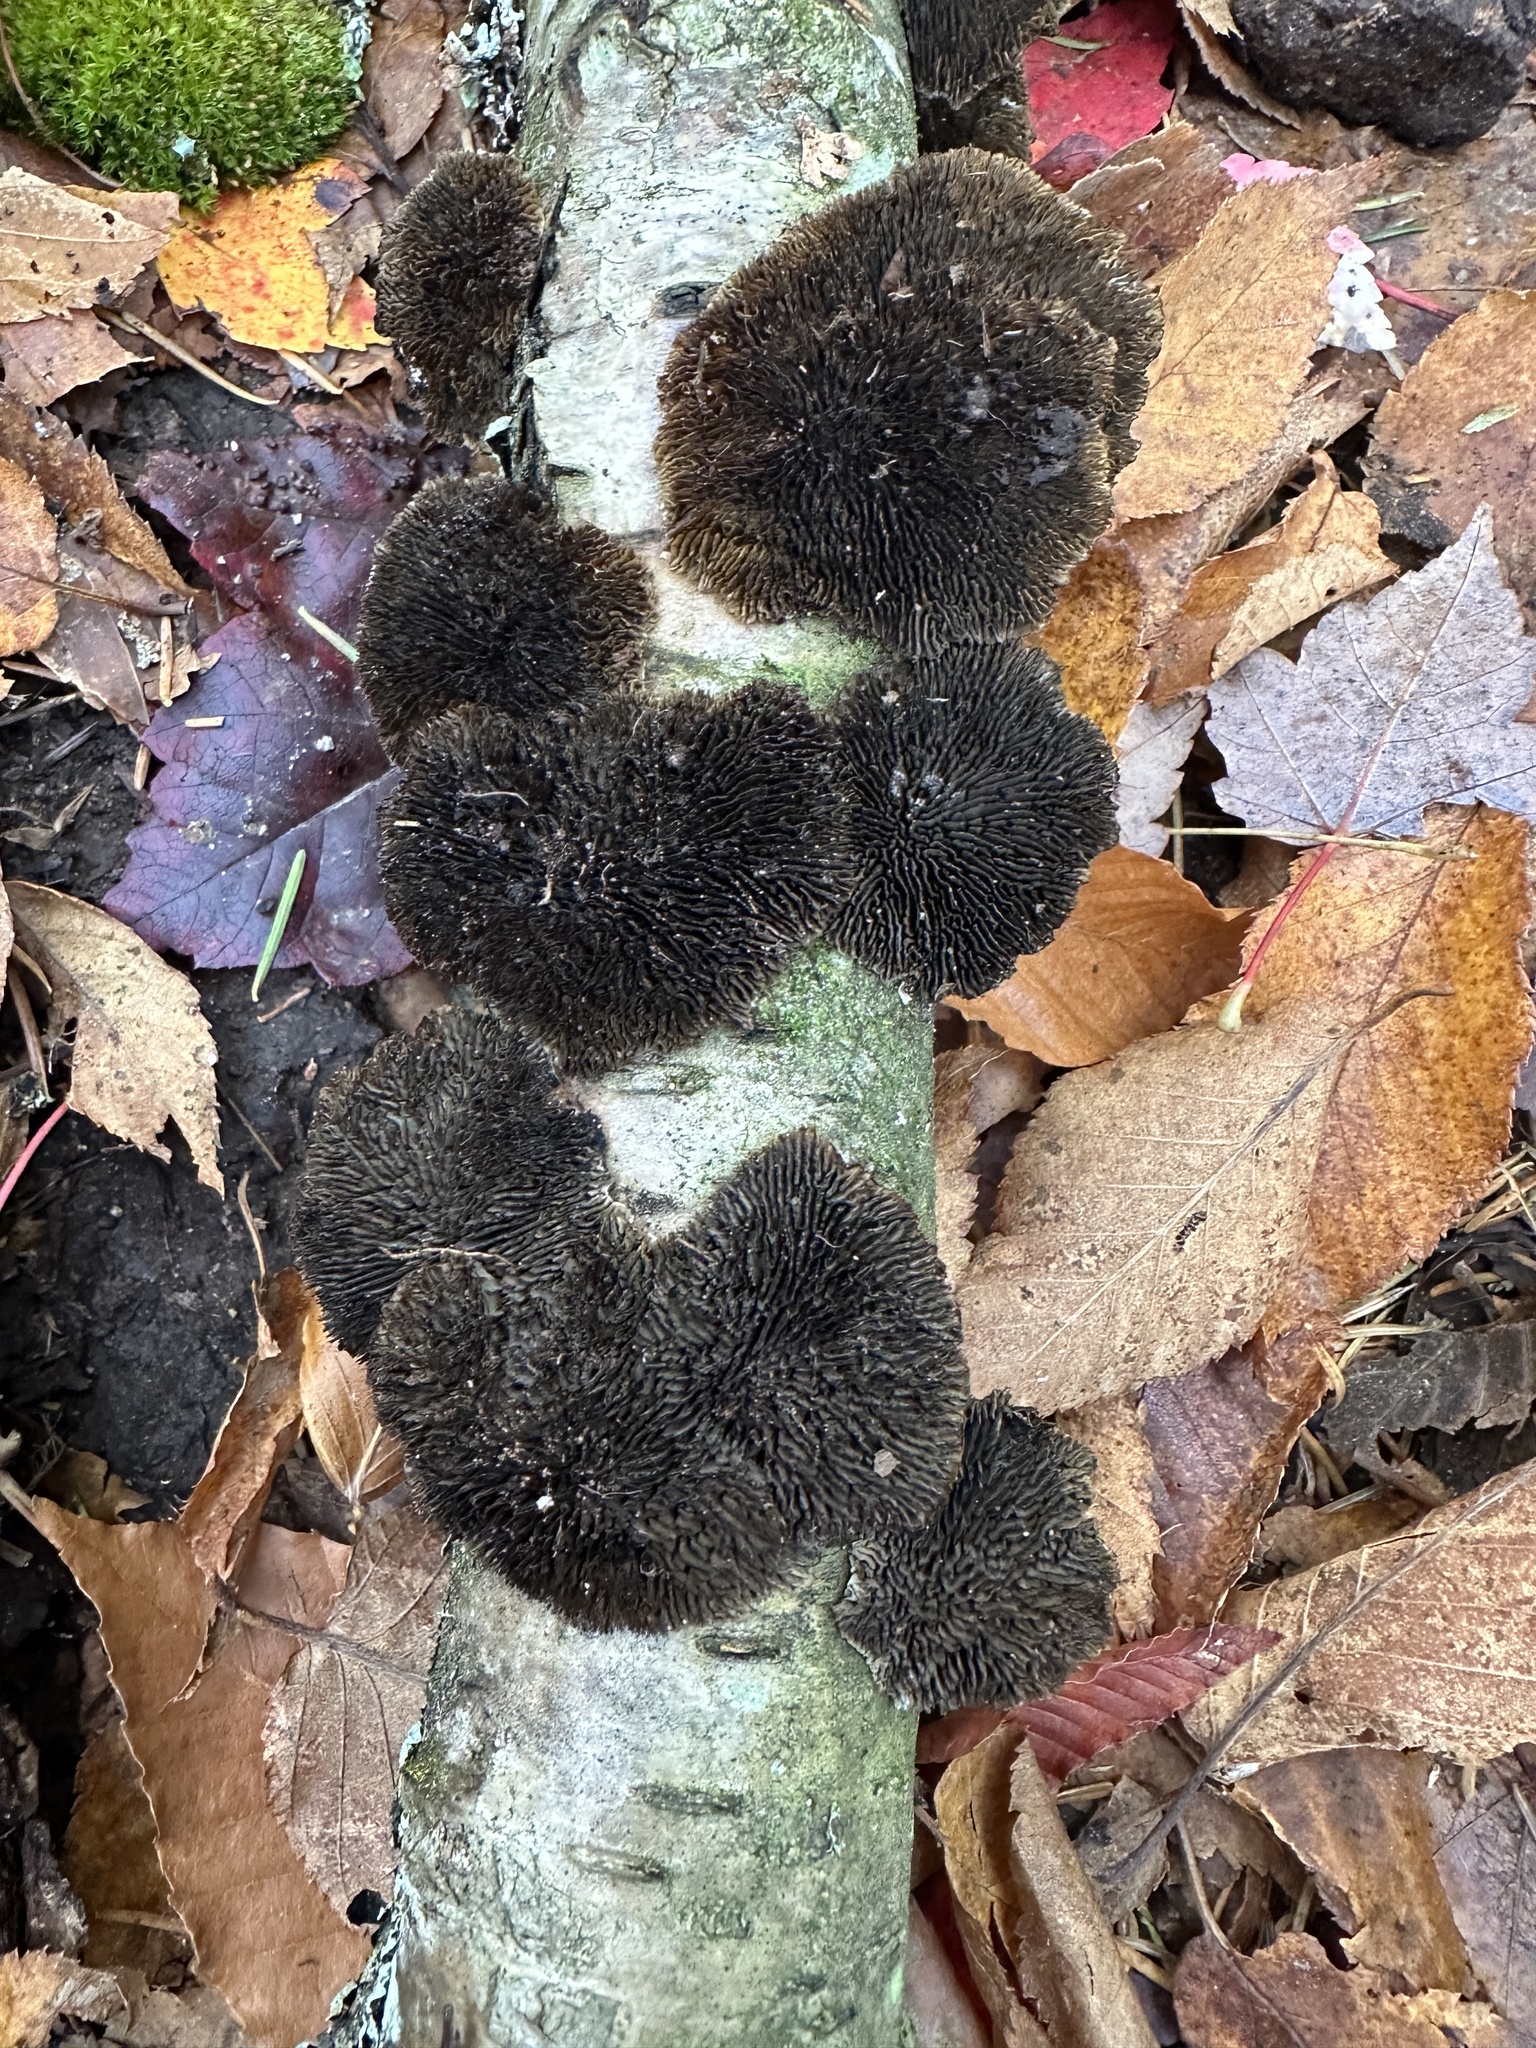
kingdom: Fungi
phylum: Basidiomycota
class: Agaricomycetes
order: Polyporales
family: Polyporaceae
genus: Daedaleopsis
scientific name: Daedaleopsis confragosa
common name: Blushing bracket
